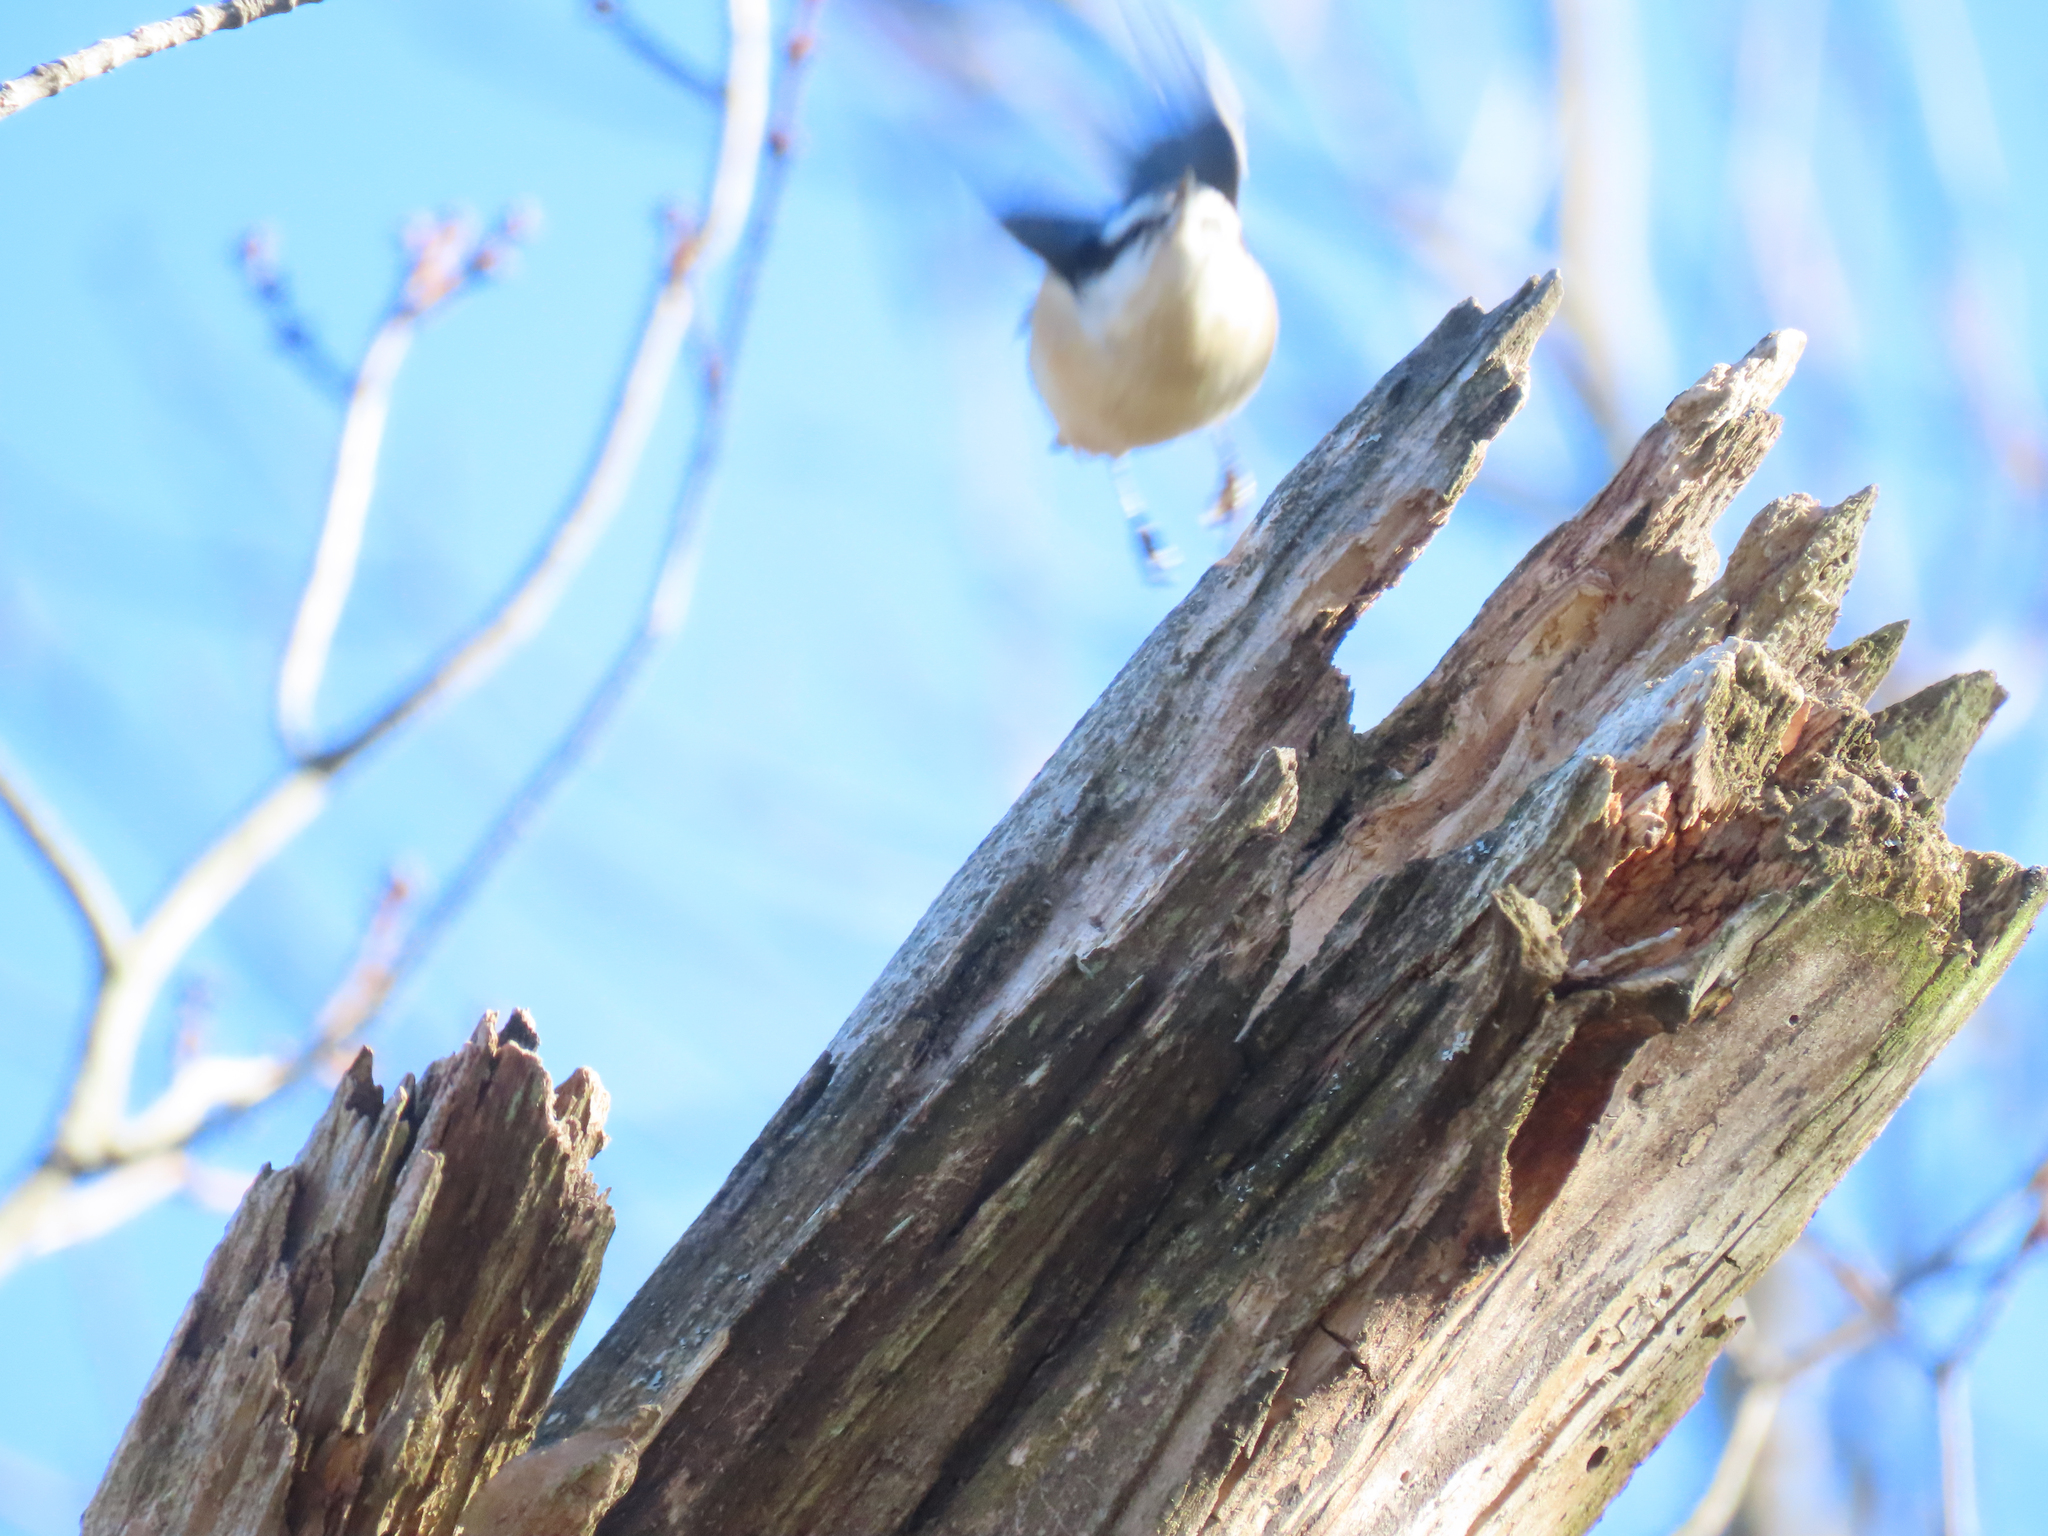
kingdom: Animalia
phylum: Chordata
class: Aves
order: Passeriformes
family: Sittidae
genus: Sitta
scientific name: Sitta canadensis
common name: Red-breasted nuthatch
